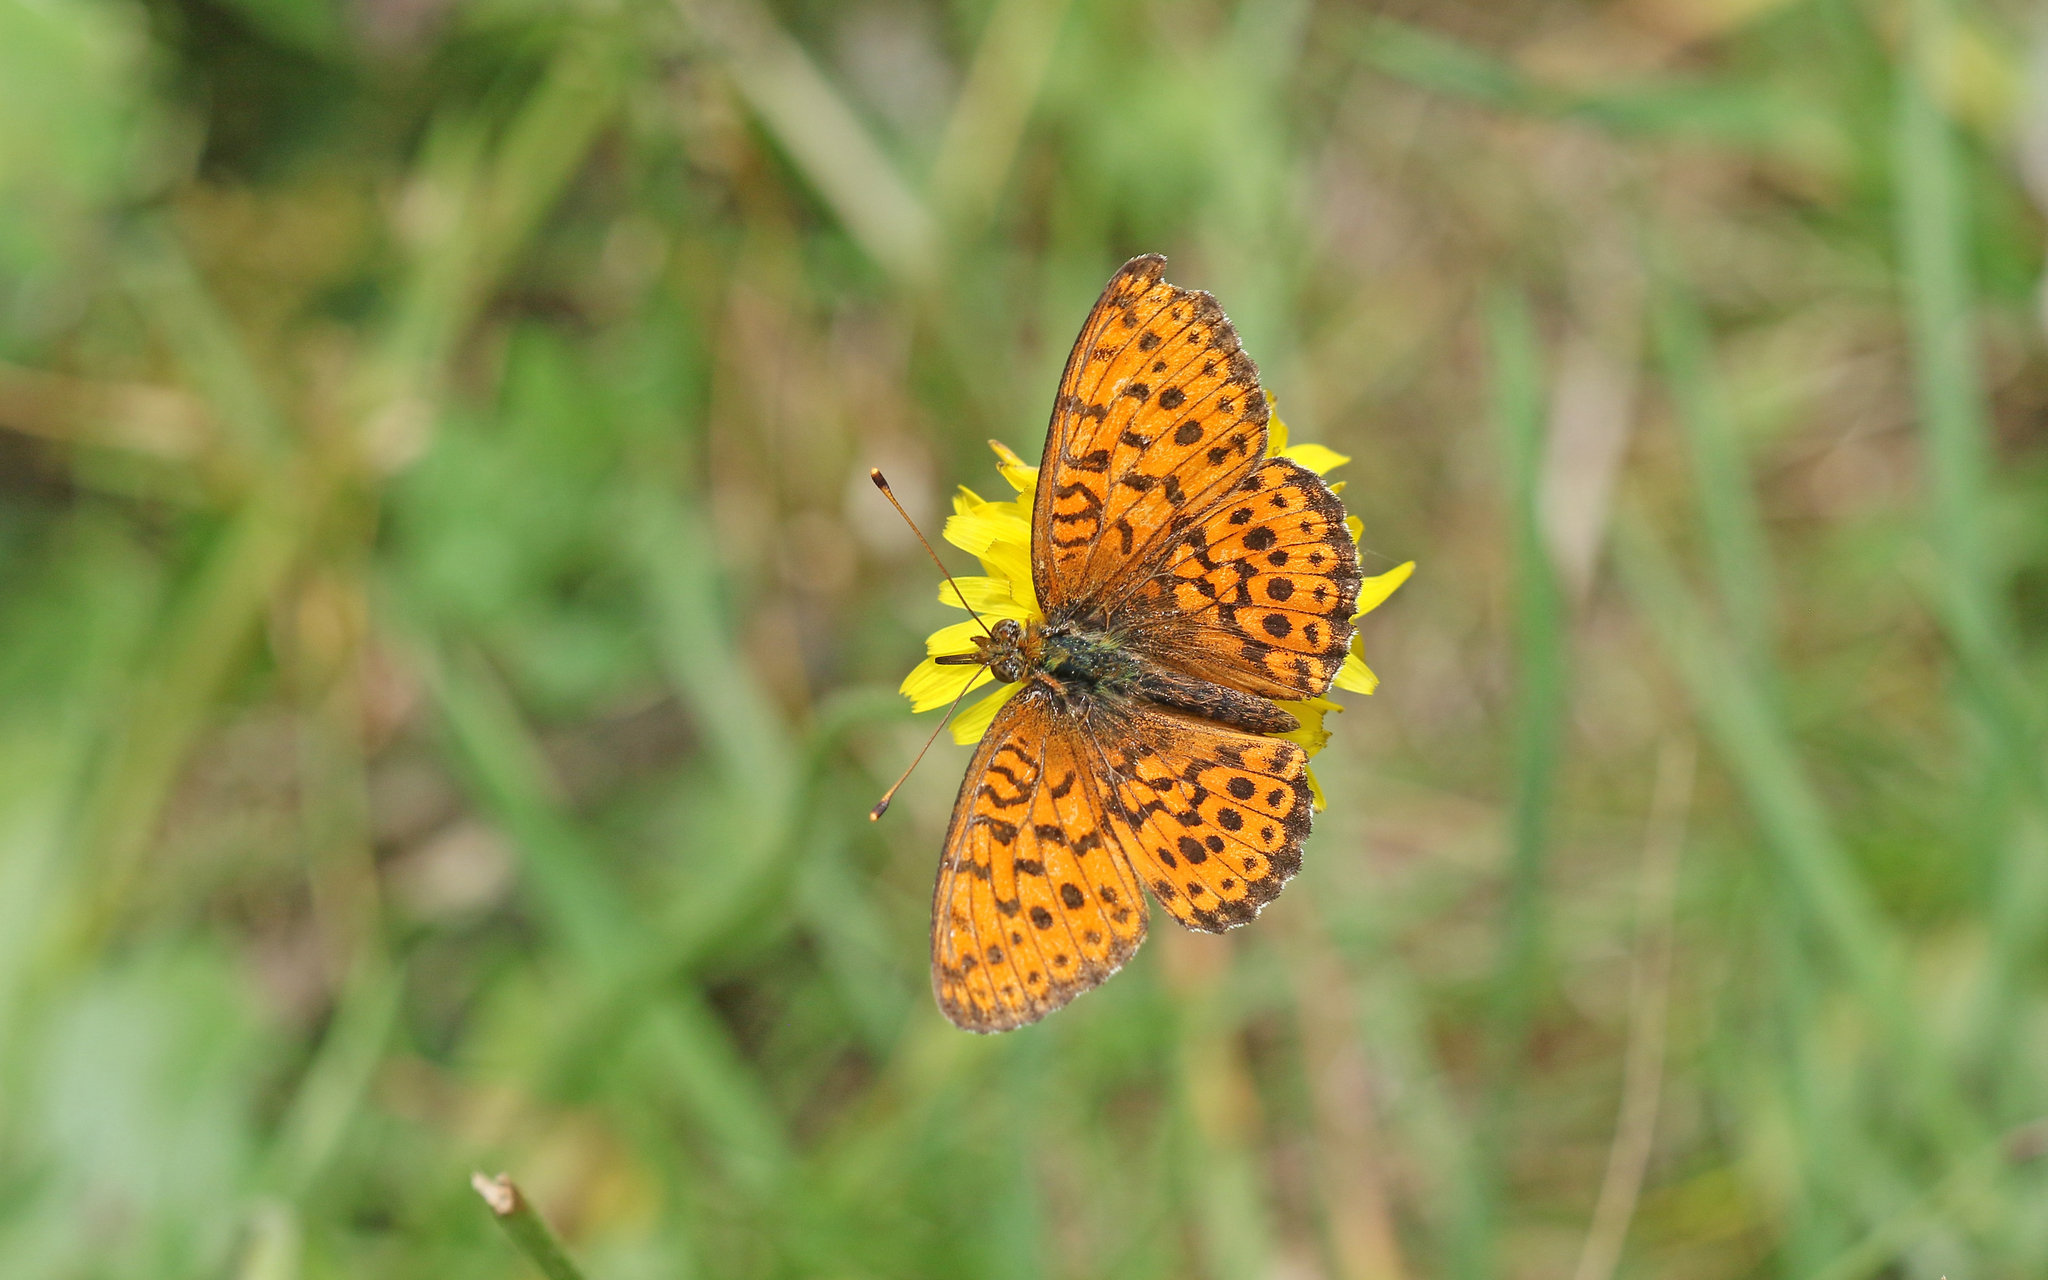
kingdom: Animalia
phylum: Arthropoda
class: Insecta
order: Lepidoptera
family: Nymphalidae
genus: Brenthis
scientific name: Brenthis ino
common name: Lesser marbled fritillary
